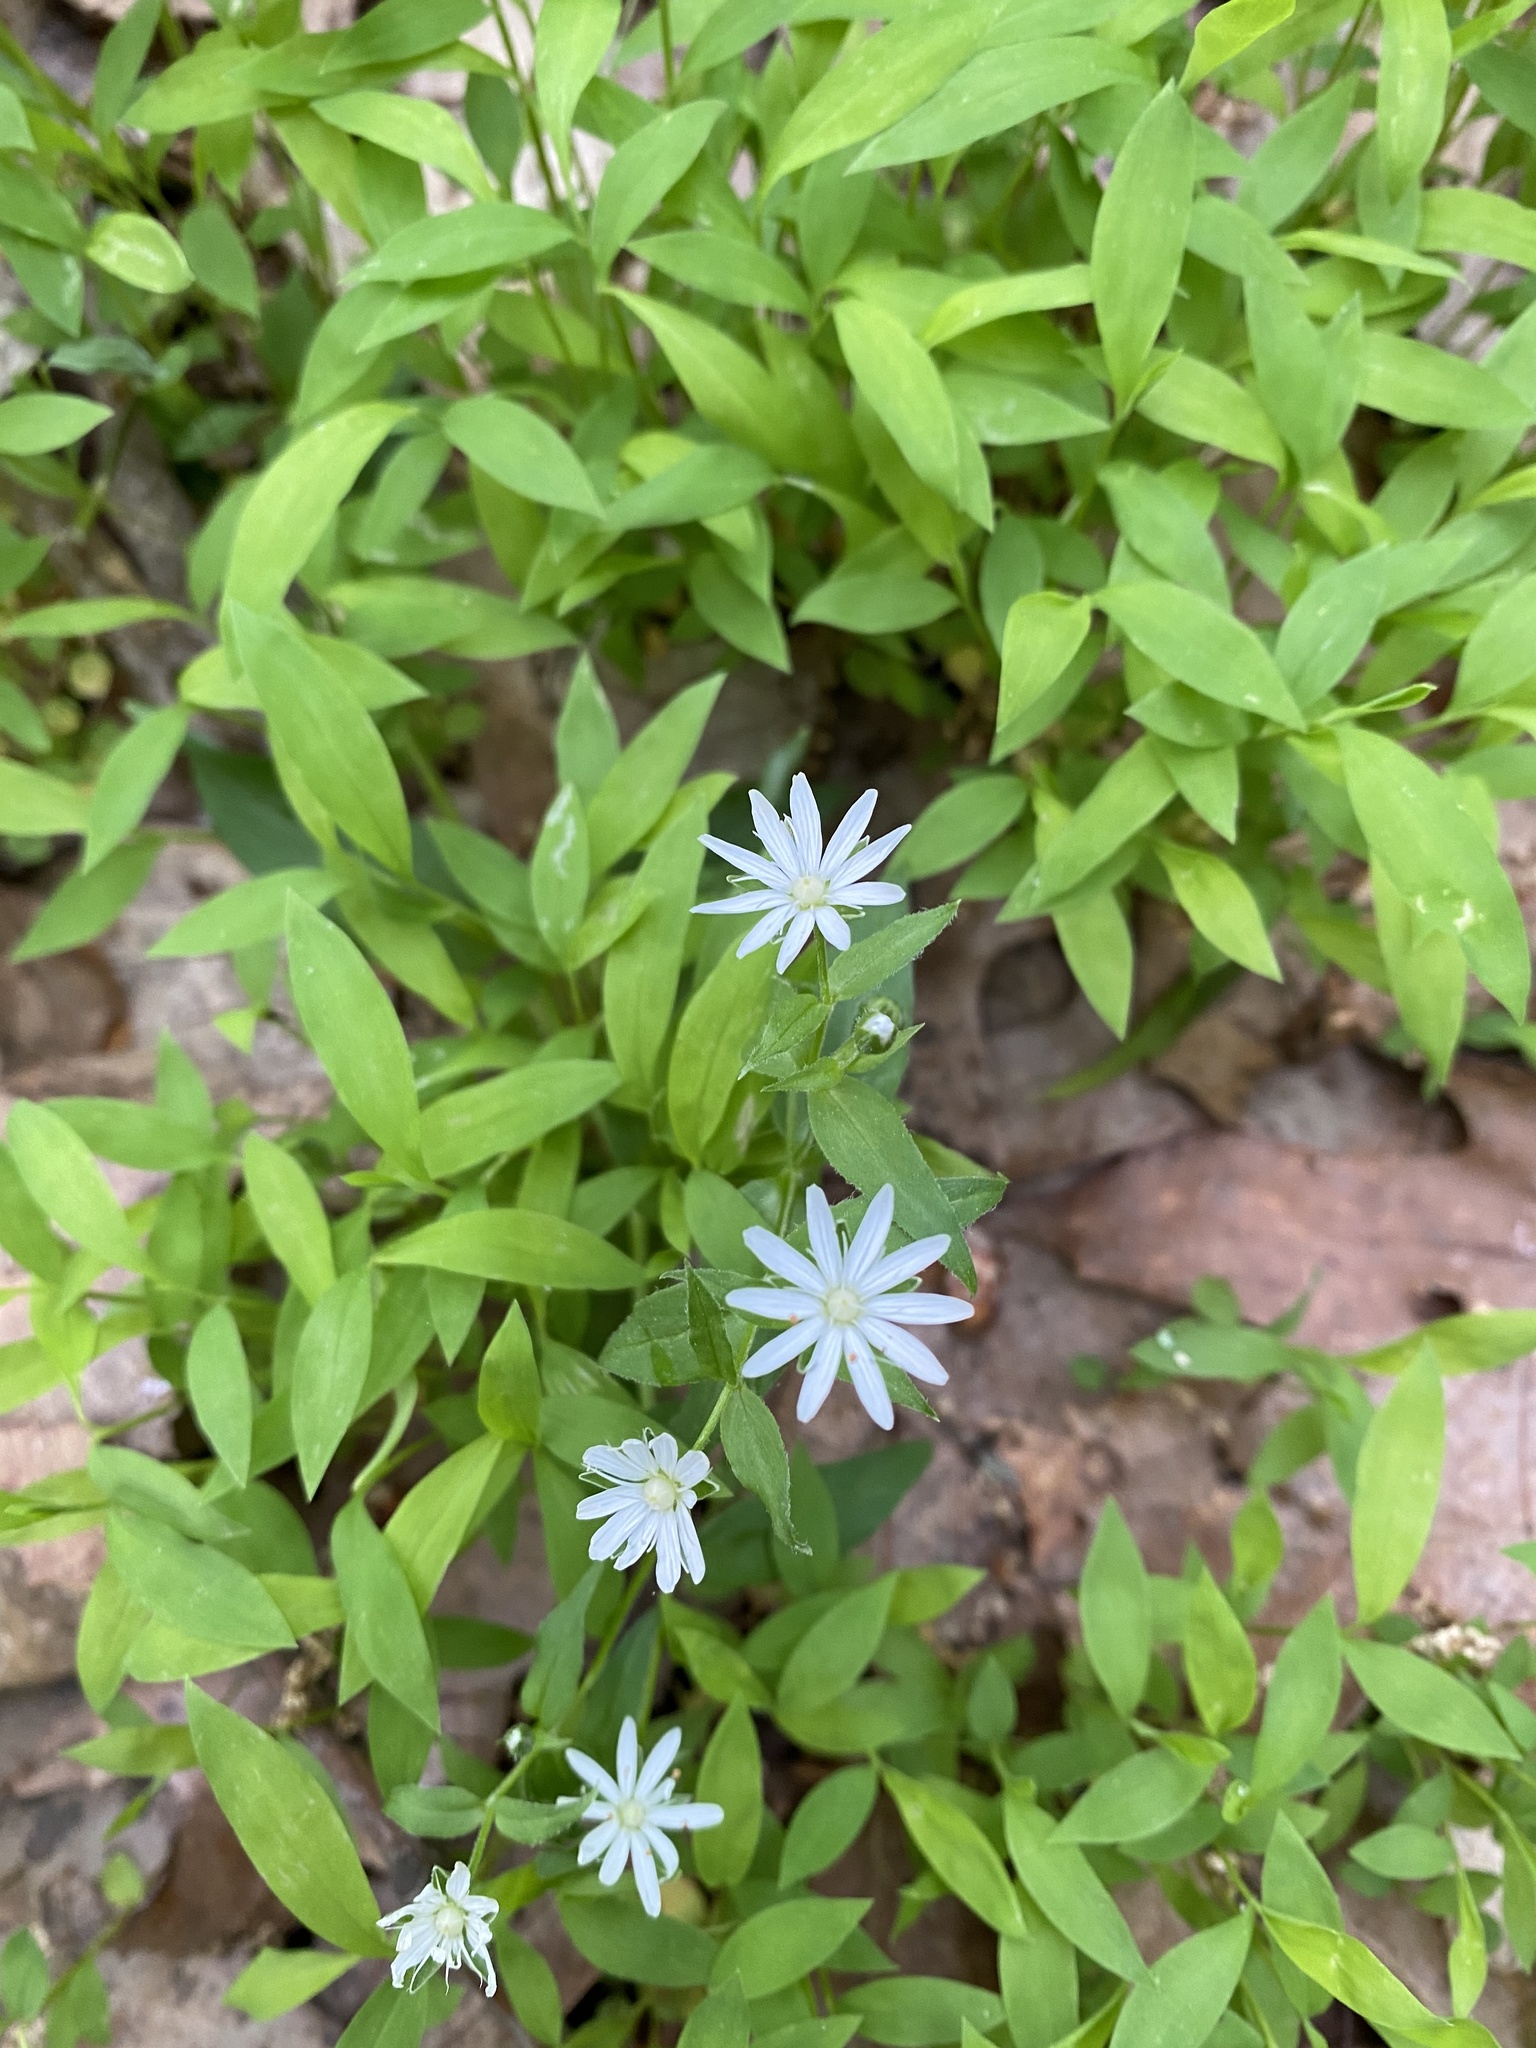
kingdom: Plantae
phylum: Tracheophyta
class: Magnoliopsida
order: Caryophyllales
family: Caryophyllaceae
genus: Stellaria
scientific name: Stellaria pubera
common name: Star chickweed
